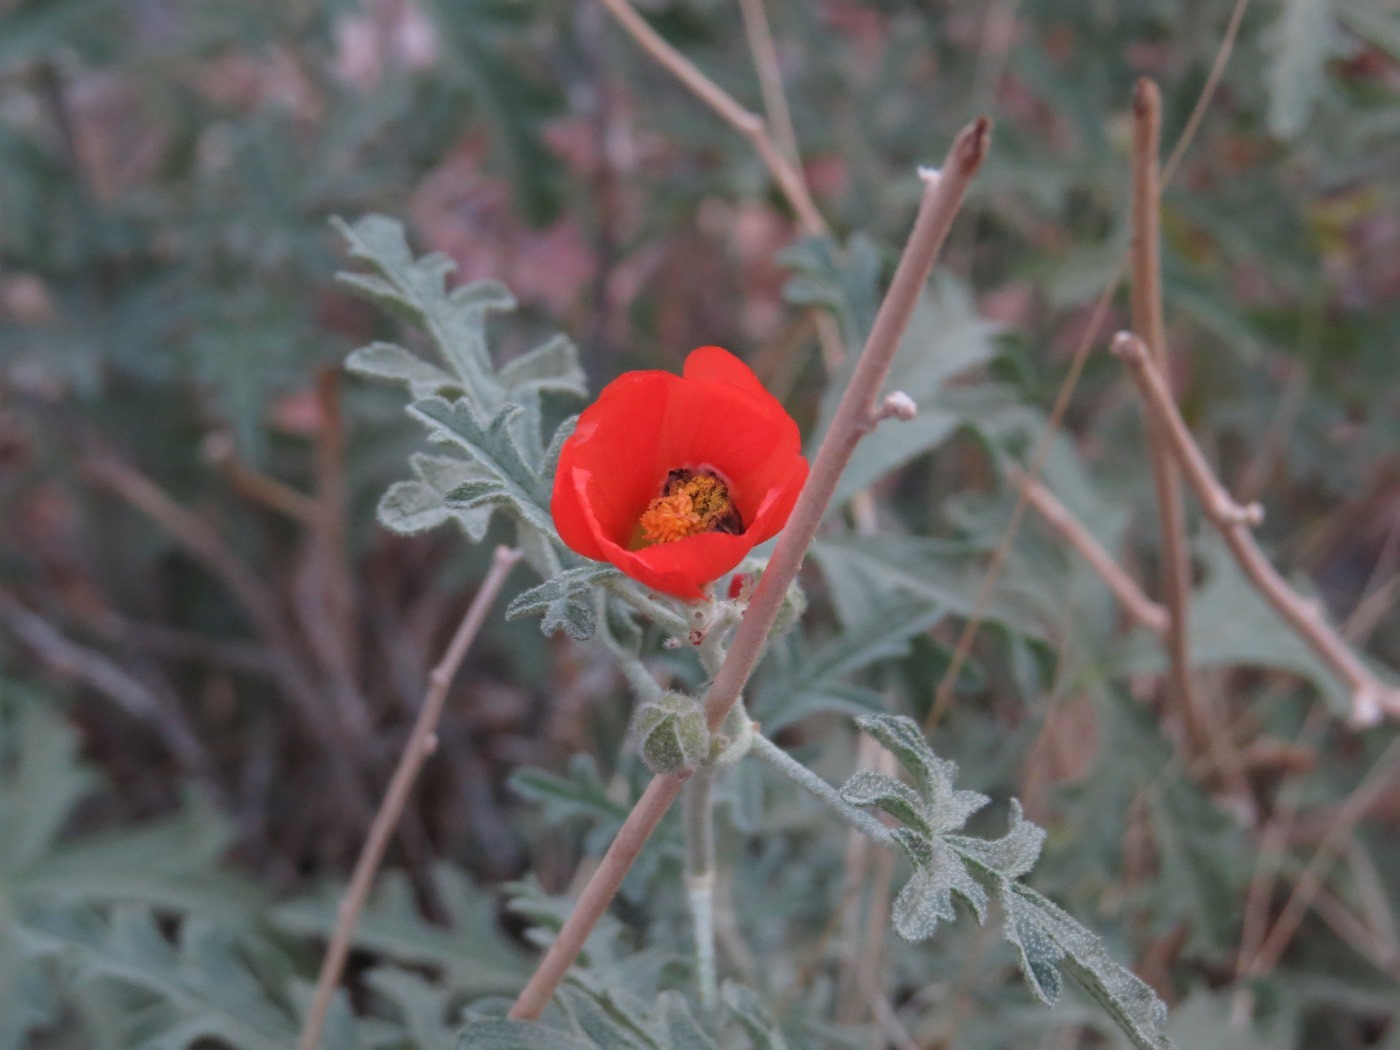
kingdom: Plantae
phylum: Tracheophyta
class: Magnoliopsida
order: Malvales
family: Malvaceae
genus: Sphaeralcea
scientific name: Sphaeralcea grossulariifolia
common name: Current-leaf globe-mallow
